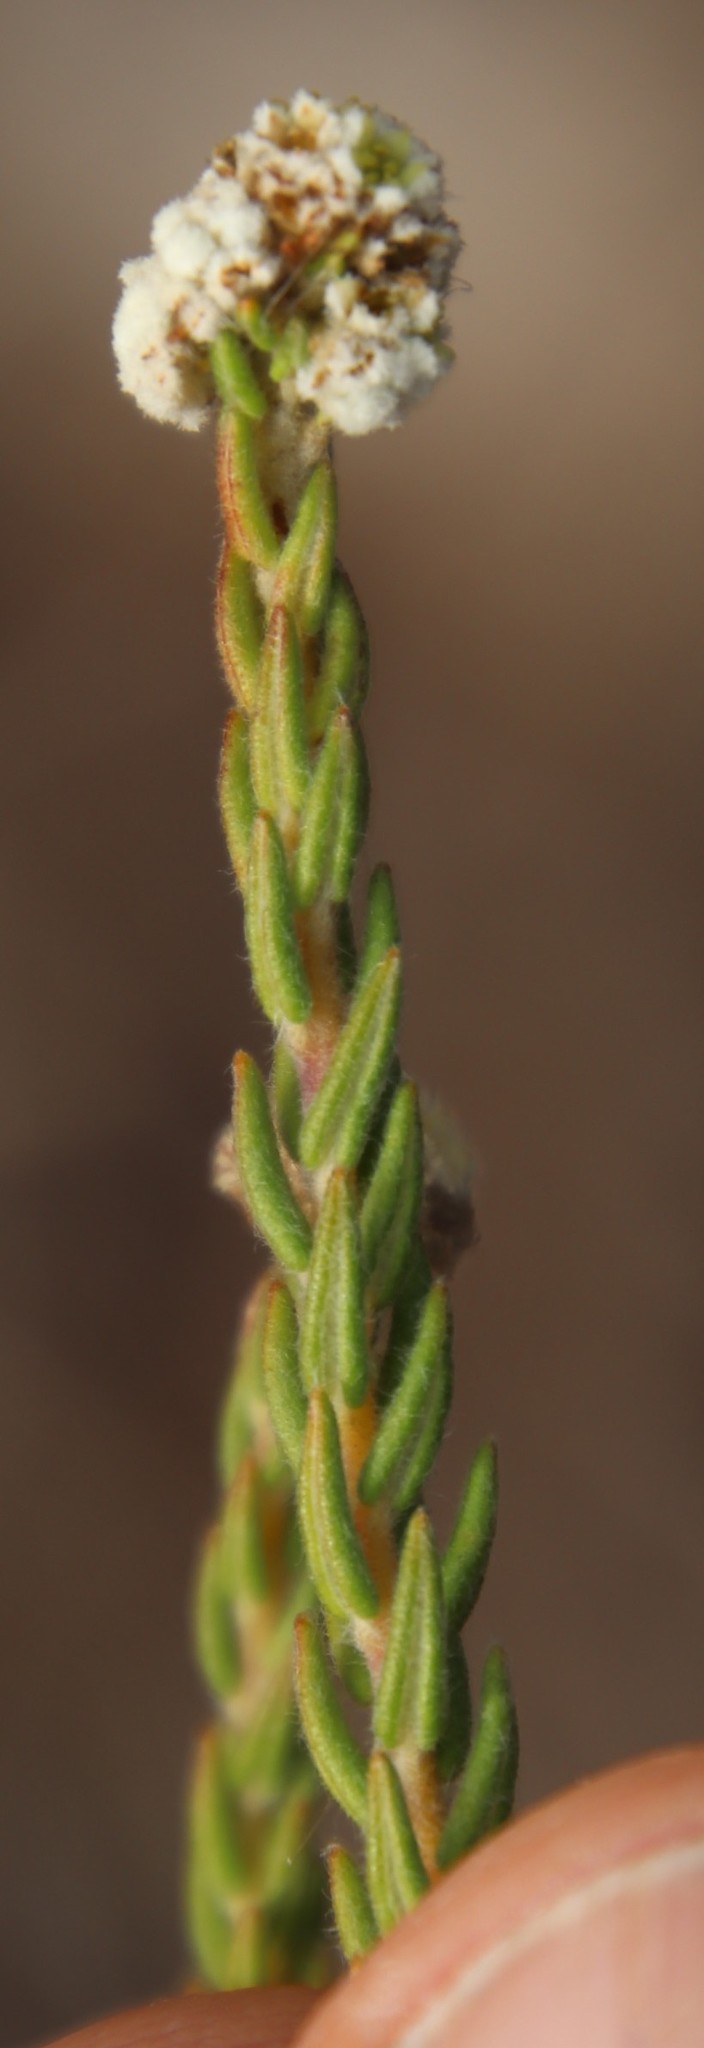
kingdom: Plantae
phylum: Tracheophyta
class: Magnoliopsida
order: Rosales
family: Rhamnaceae
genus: Phylica
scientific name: Phylica ericoides
